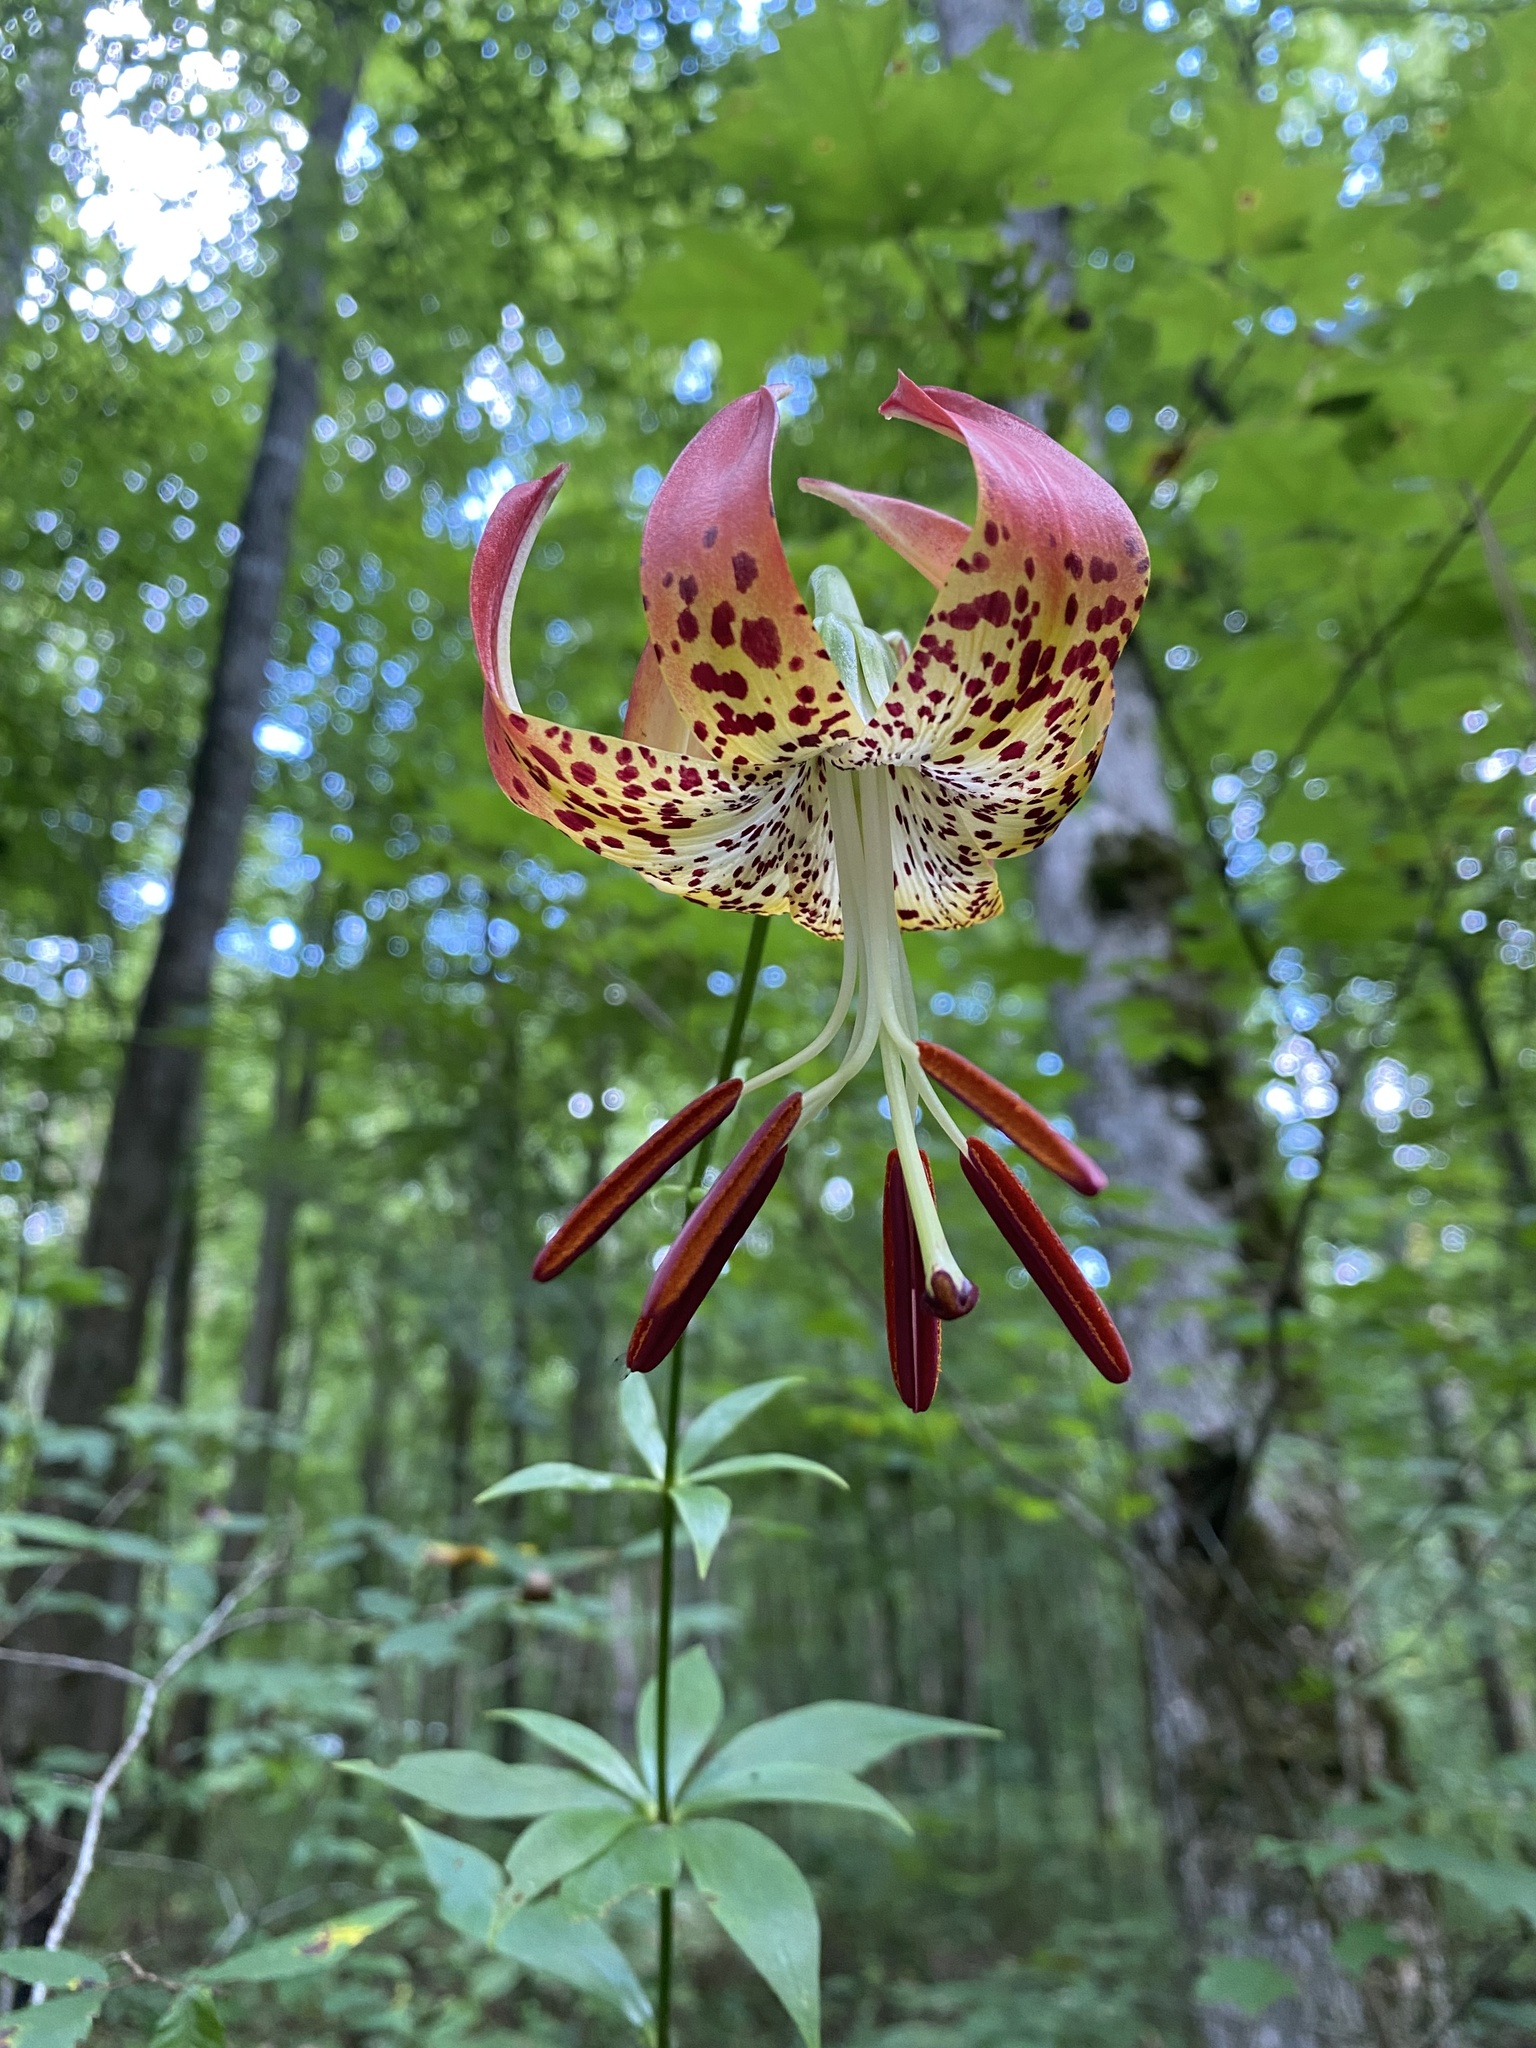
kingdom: Plantae
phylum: Tracheophyta
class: Liliopsida
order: Liliales
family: Liliaceae
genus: Lilium
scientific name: Lilium michauxii
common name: Carolina lily
